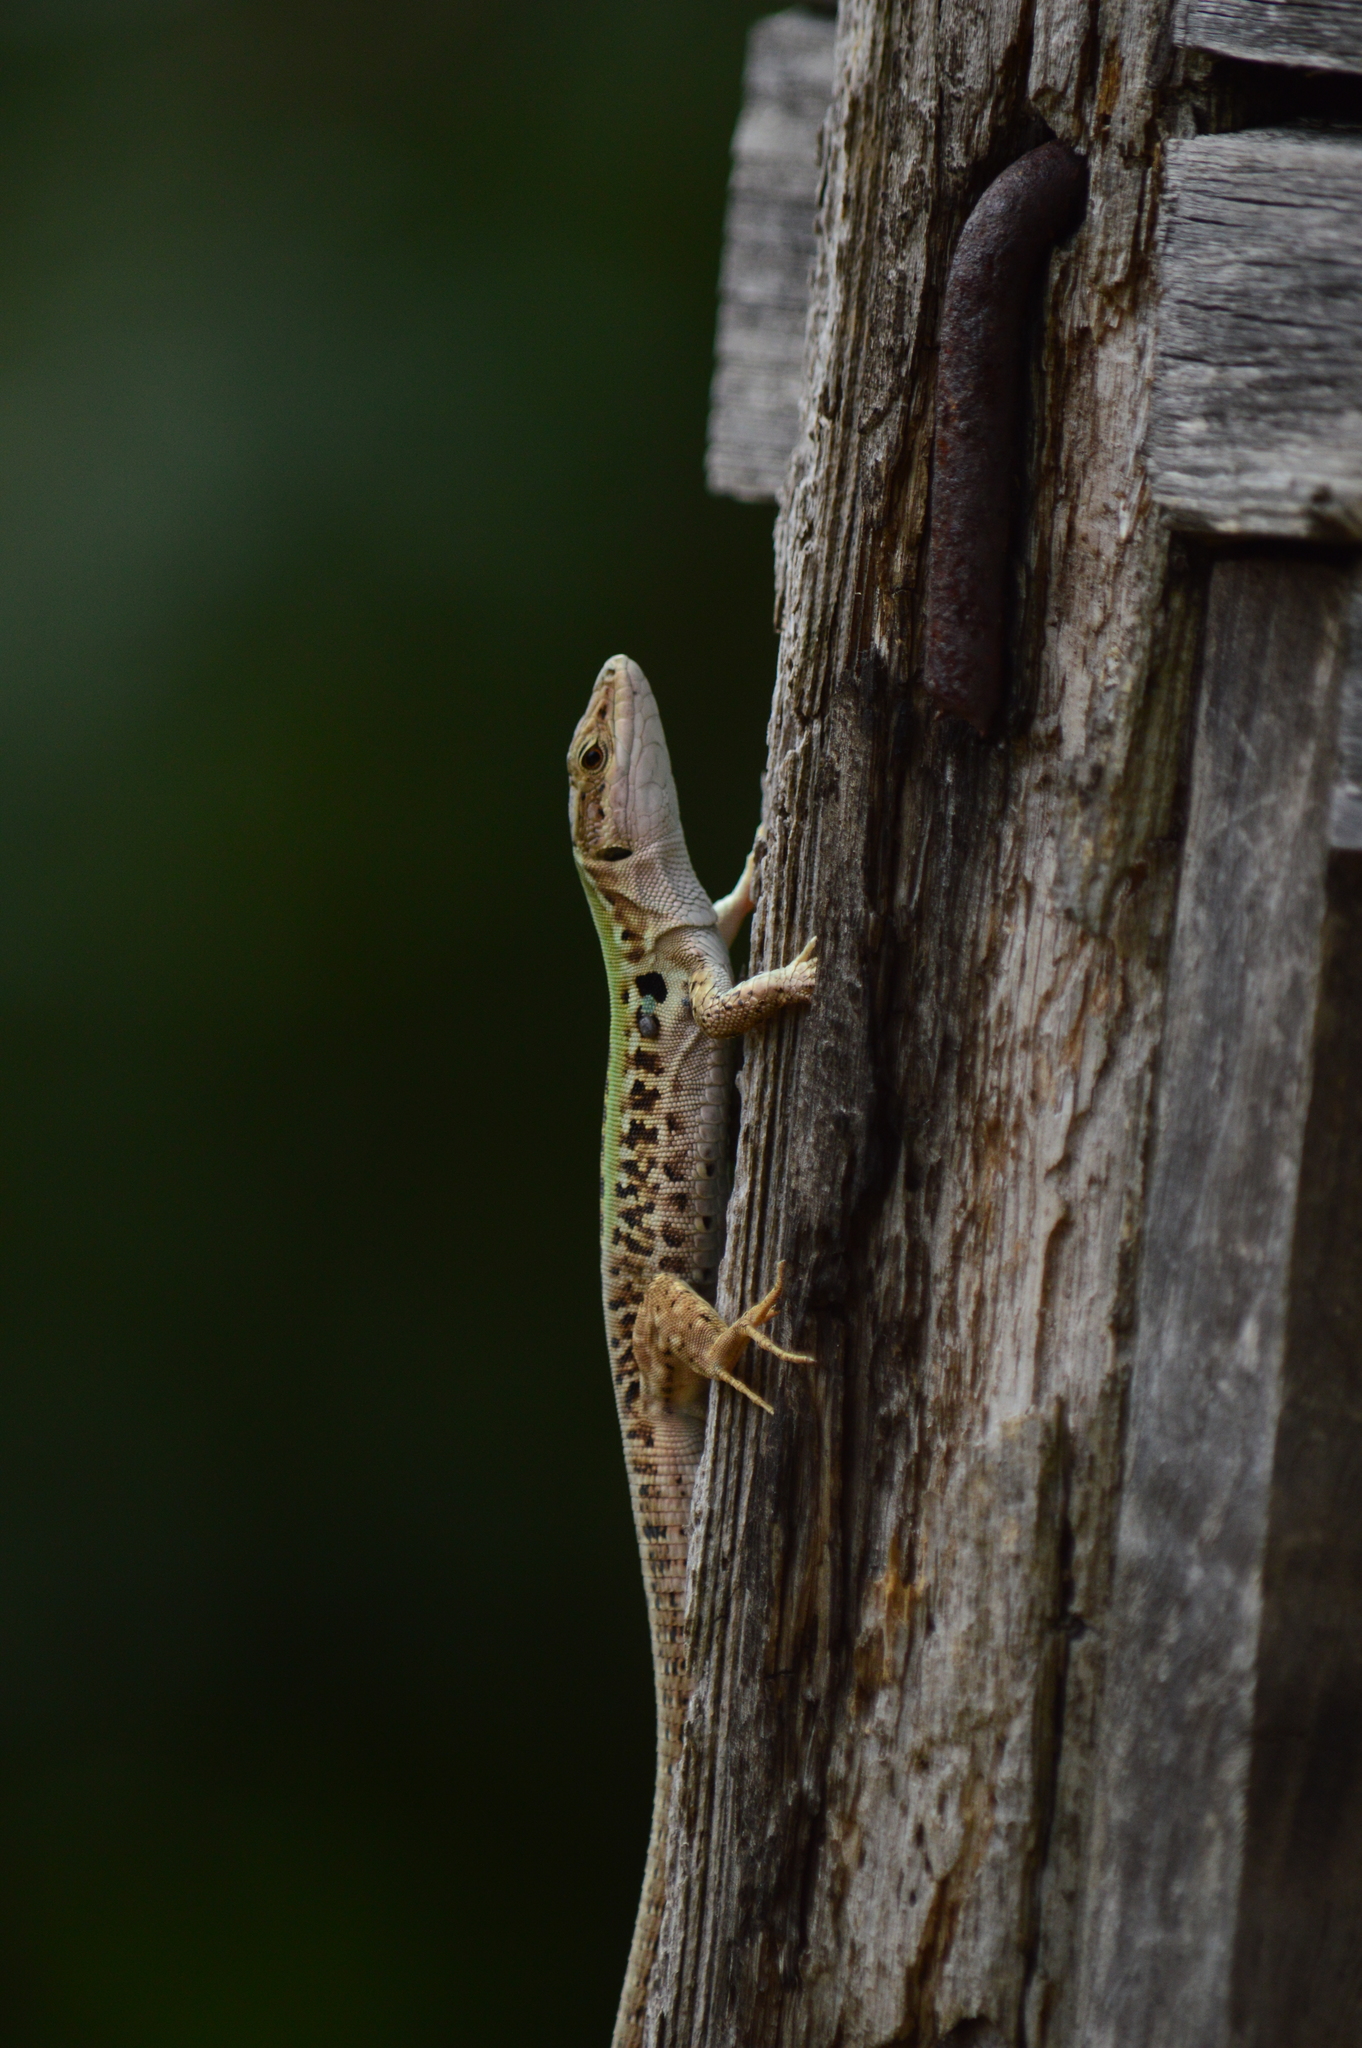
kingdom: Animalia
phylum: Chordata
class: Squamata
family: Lacertidae
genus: Podarcis
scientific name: Podarcis siculus
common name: Italian wall lizard
